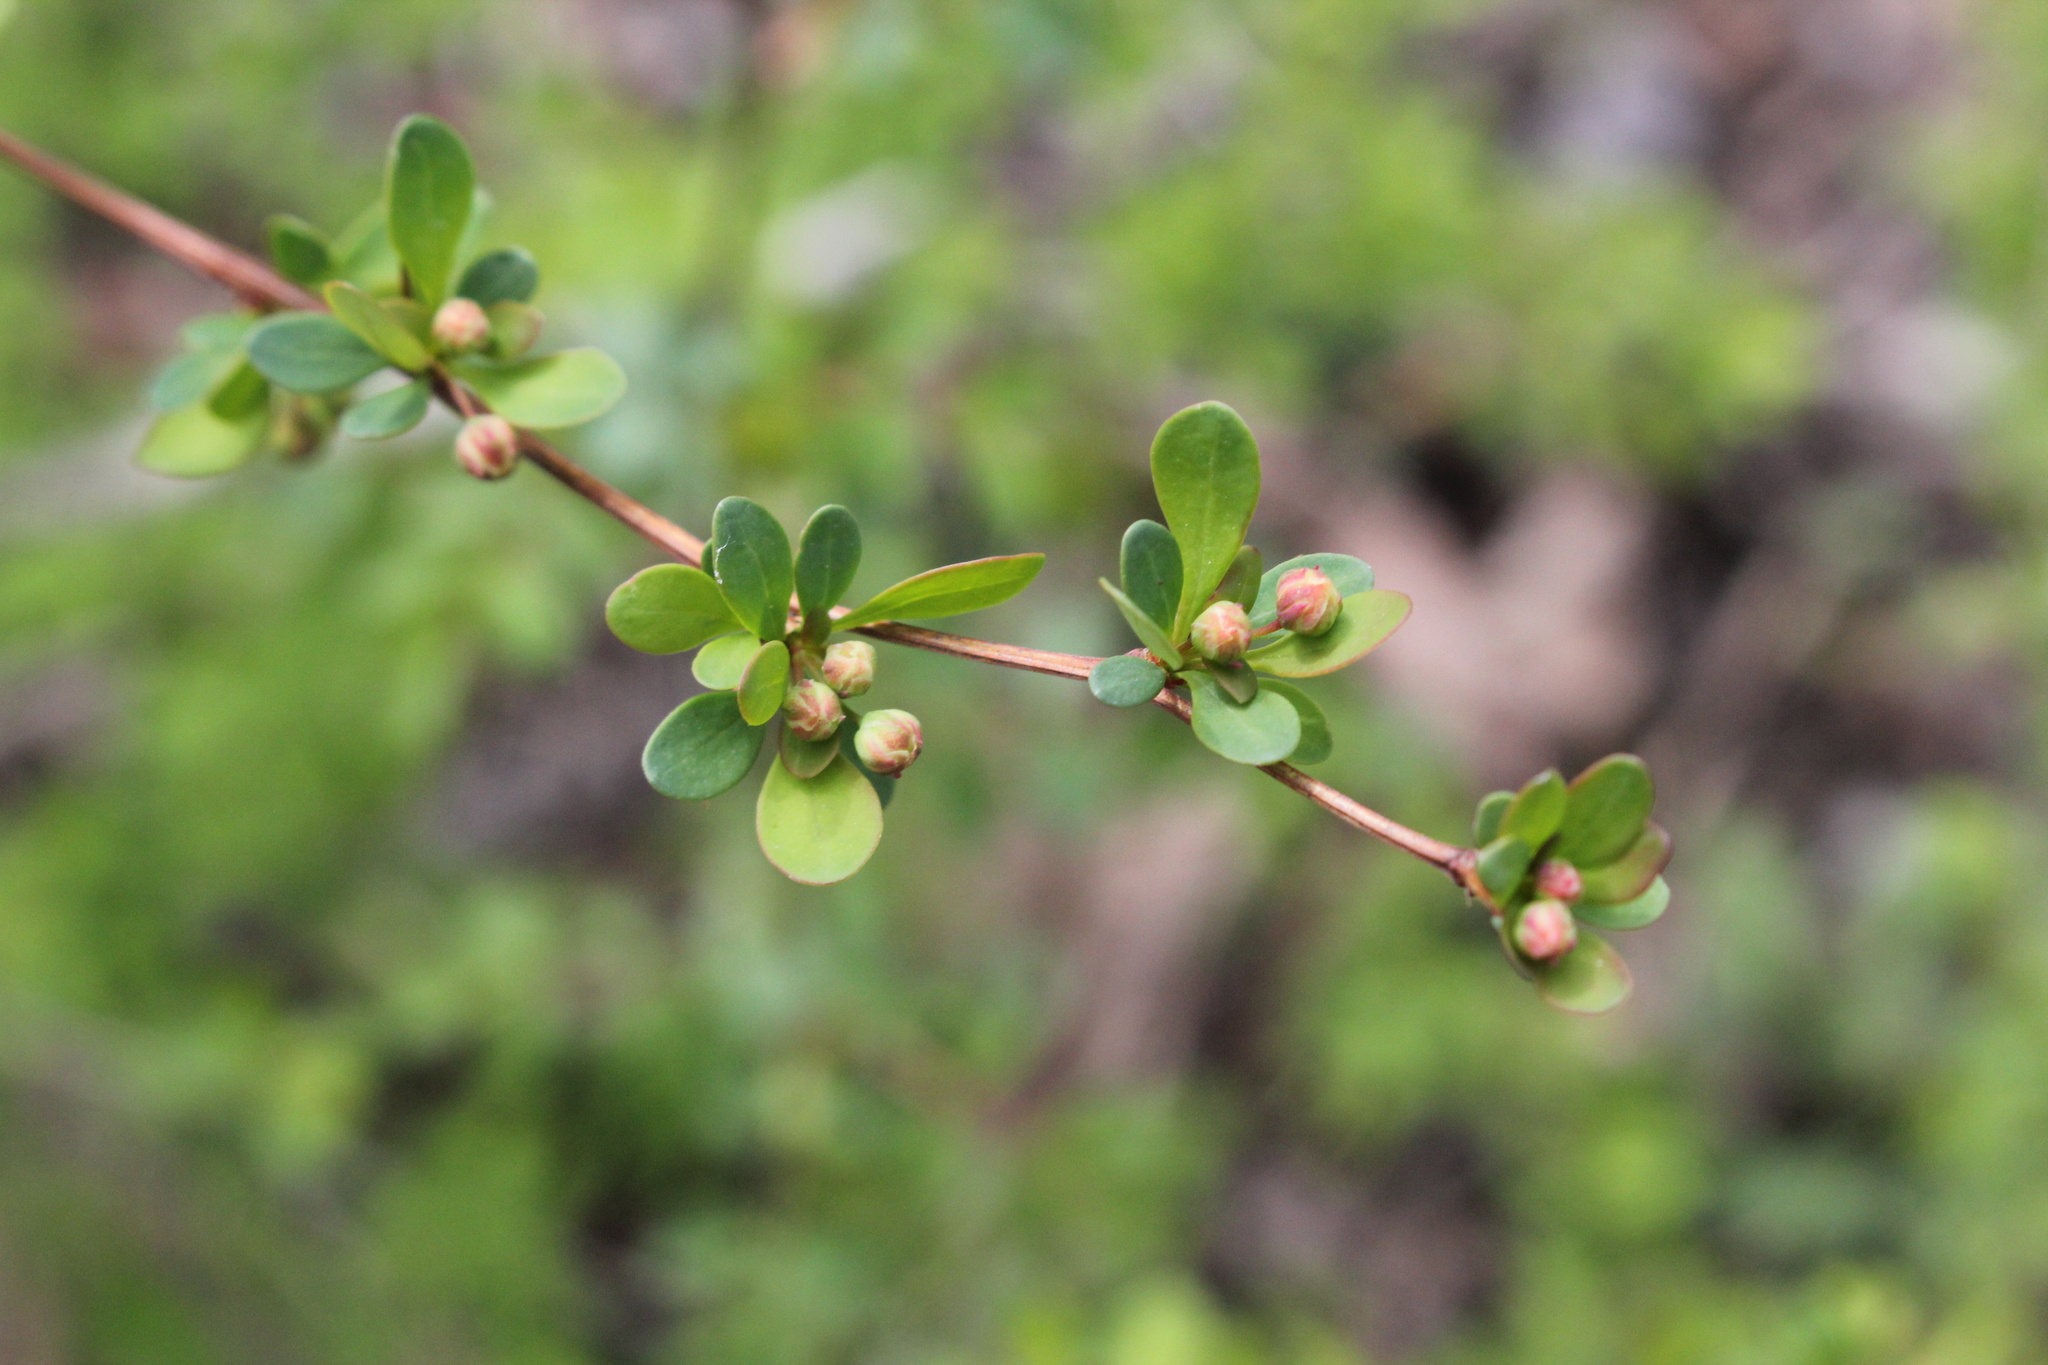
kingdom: Plantae
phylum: Tracheophyta
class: Magnoliopsida
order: Ranunculales
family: Berberidaceae
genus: Berberis
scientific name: Berberis thunbergii
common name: Japanese barberry
